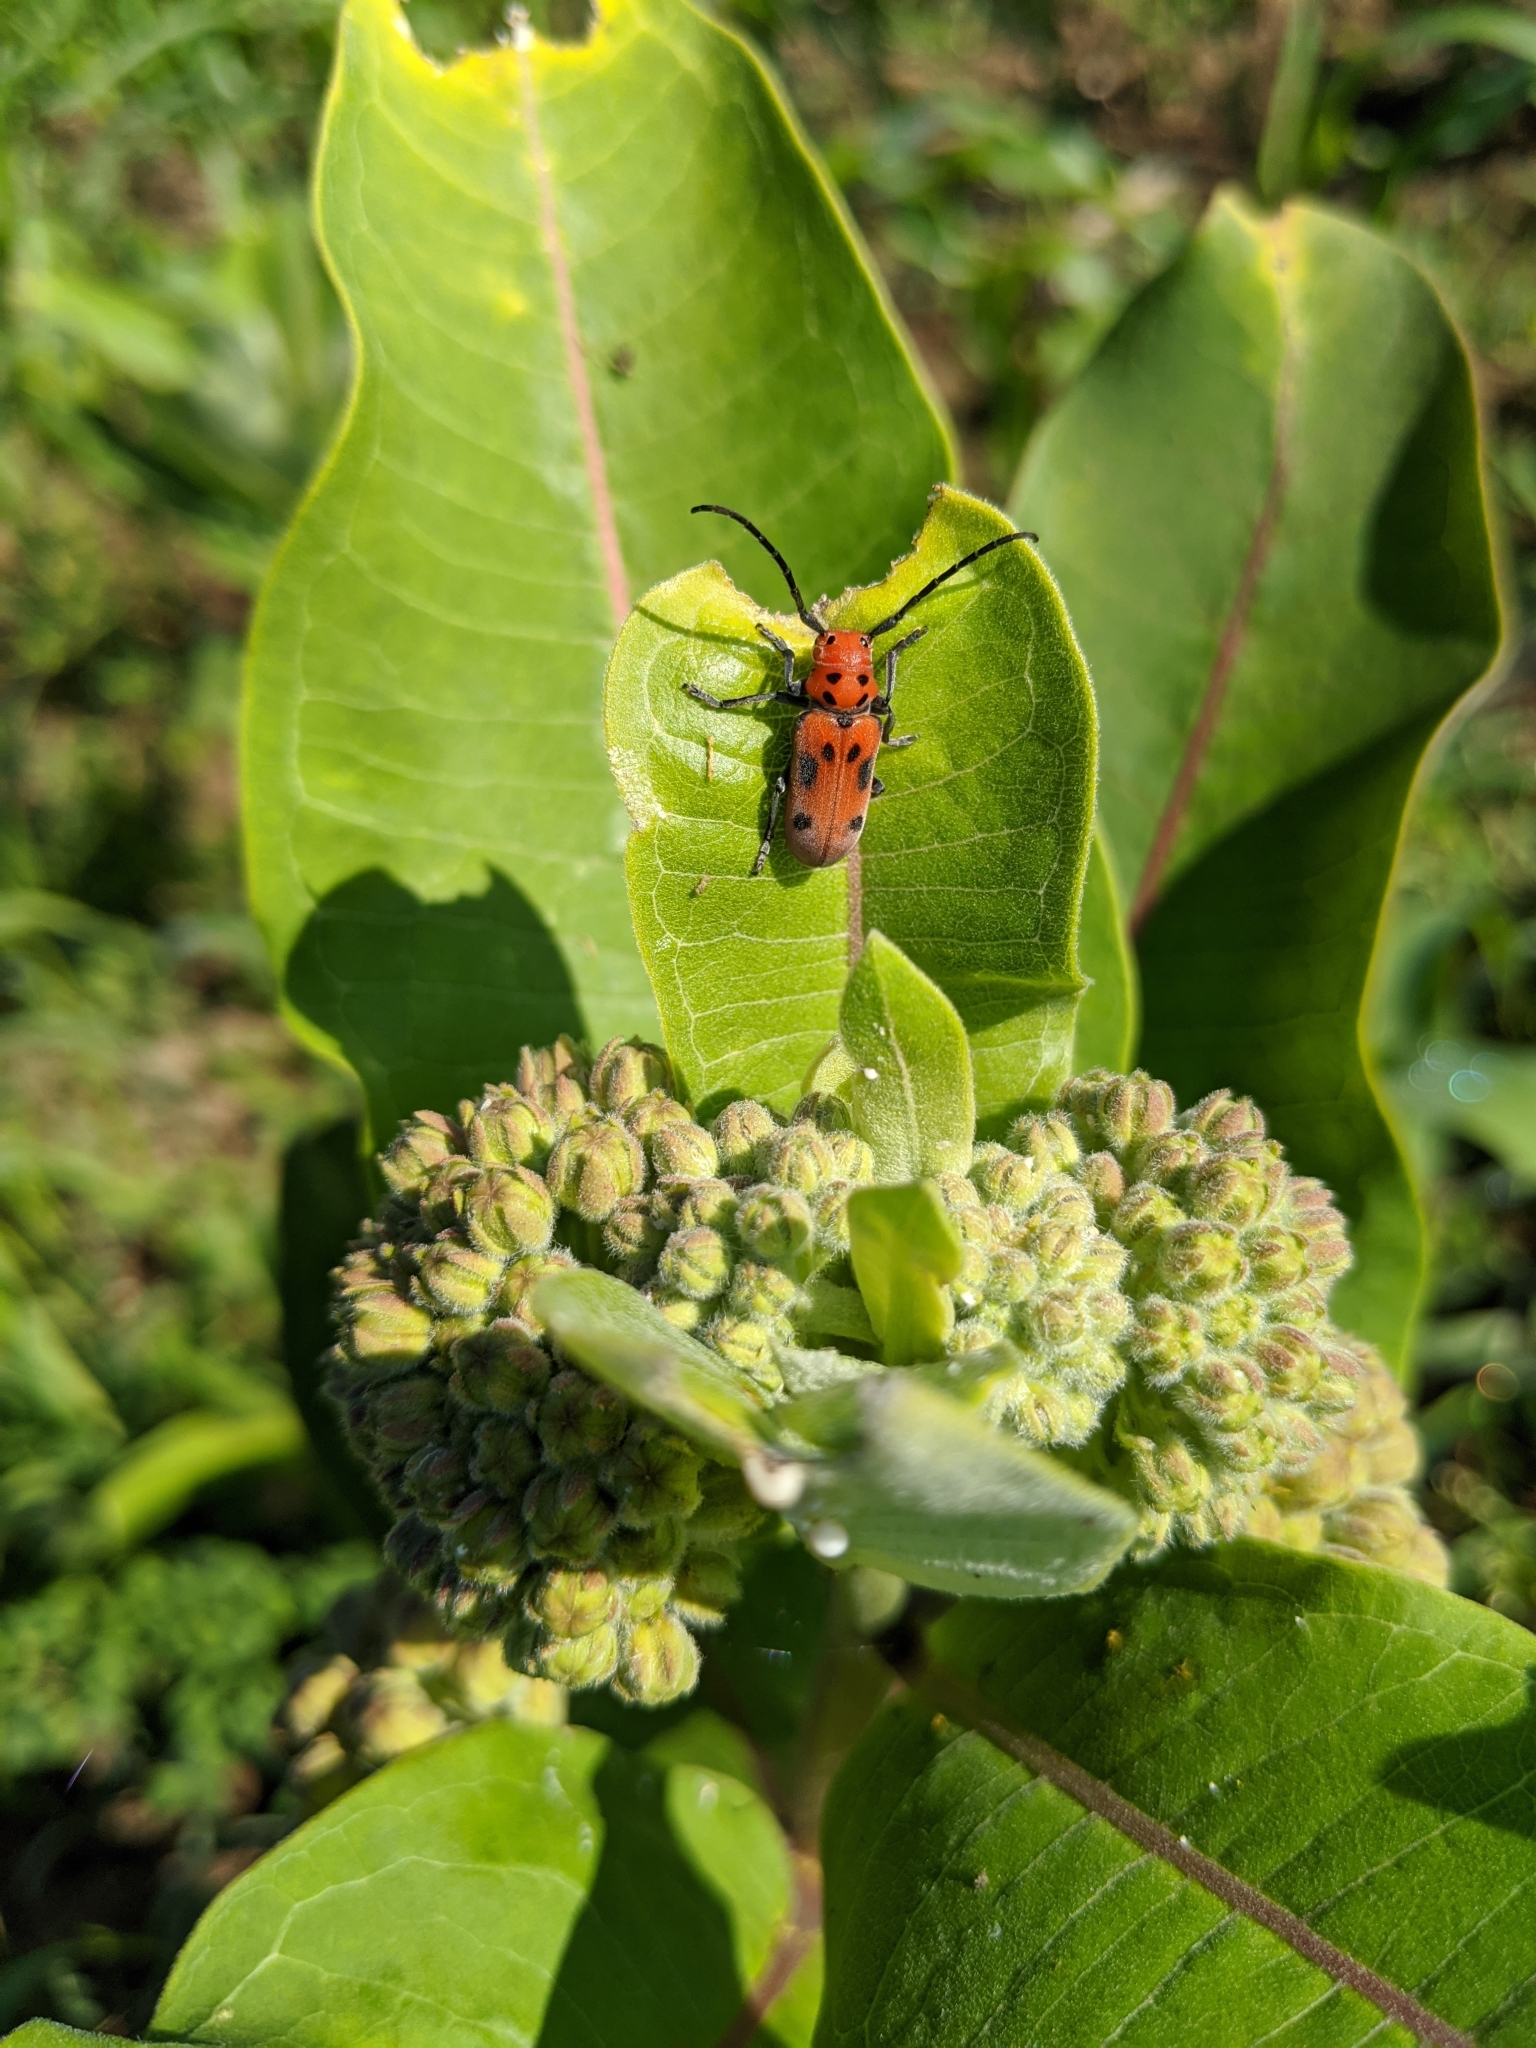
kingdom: Animalia
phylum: Arthropoda
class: Insecta
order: Coleoptera
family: Cerambycidae
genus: Tetraopes
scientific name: Tetraopes tetrophthalmus
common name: Red milkweed beetle
